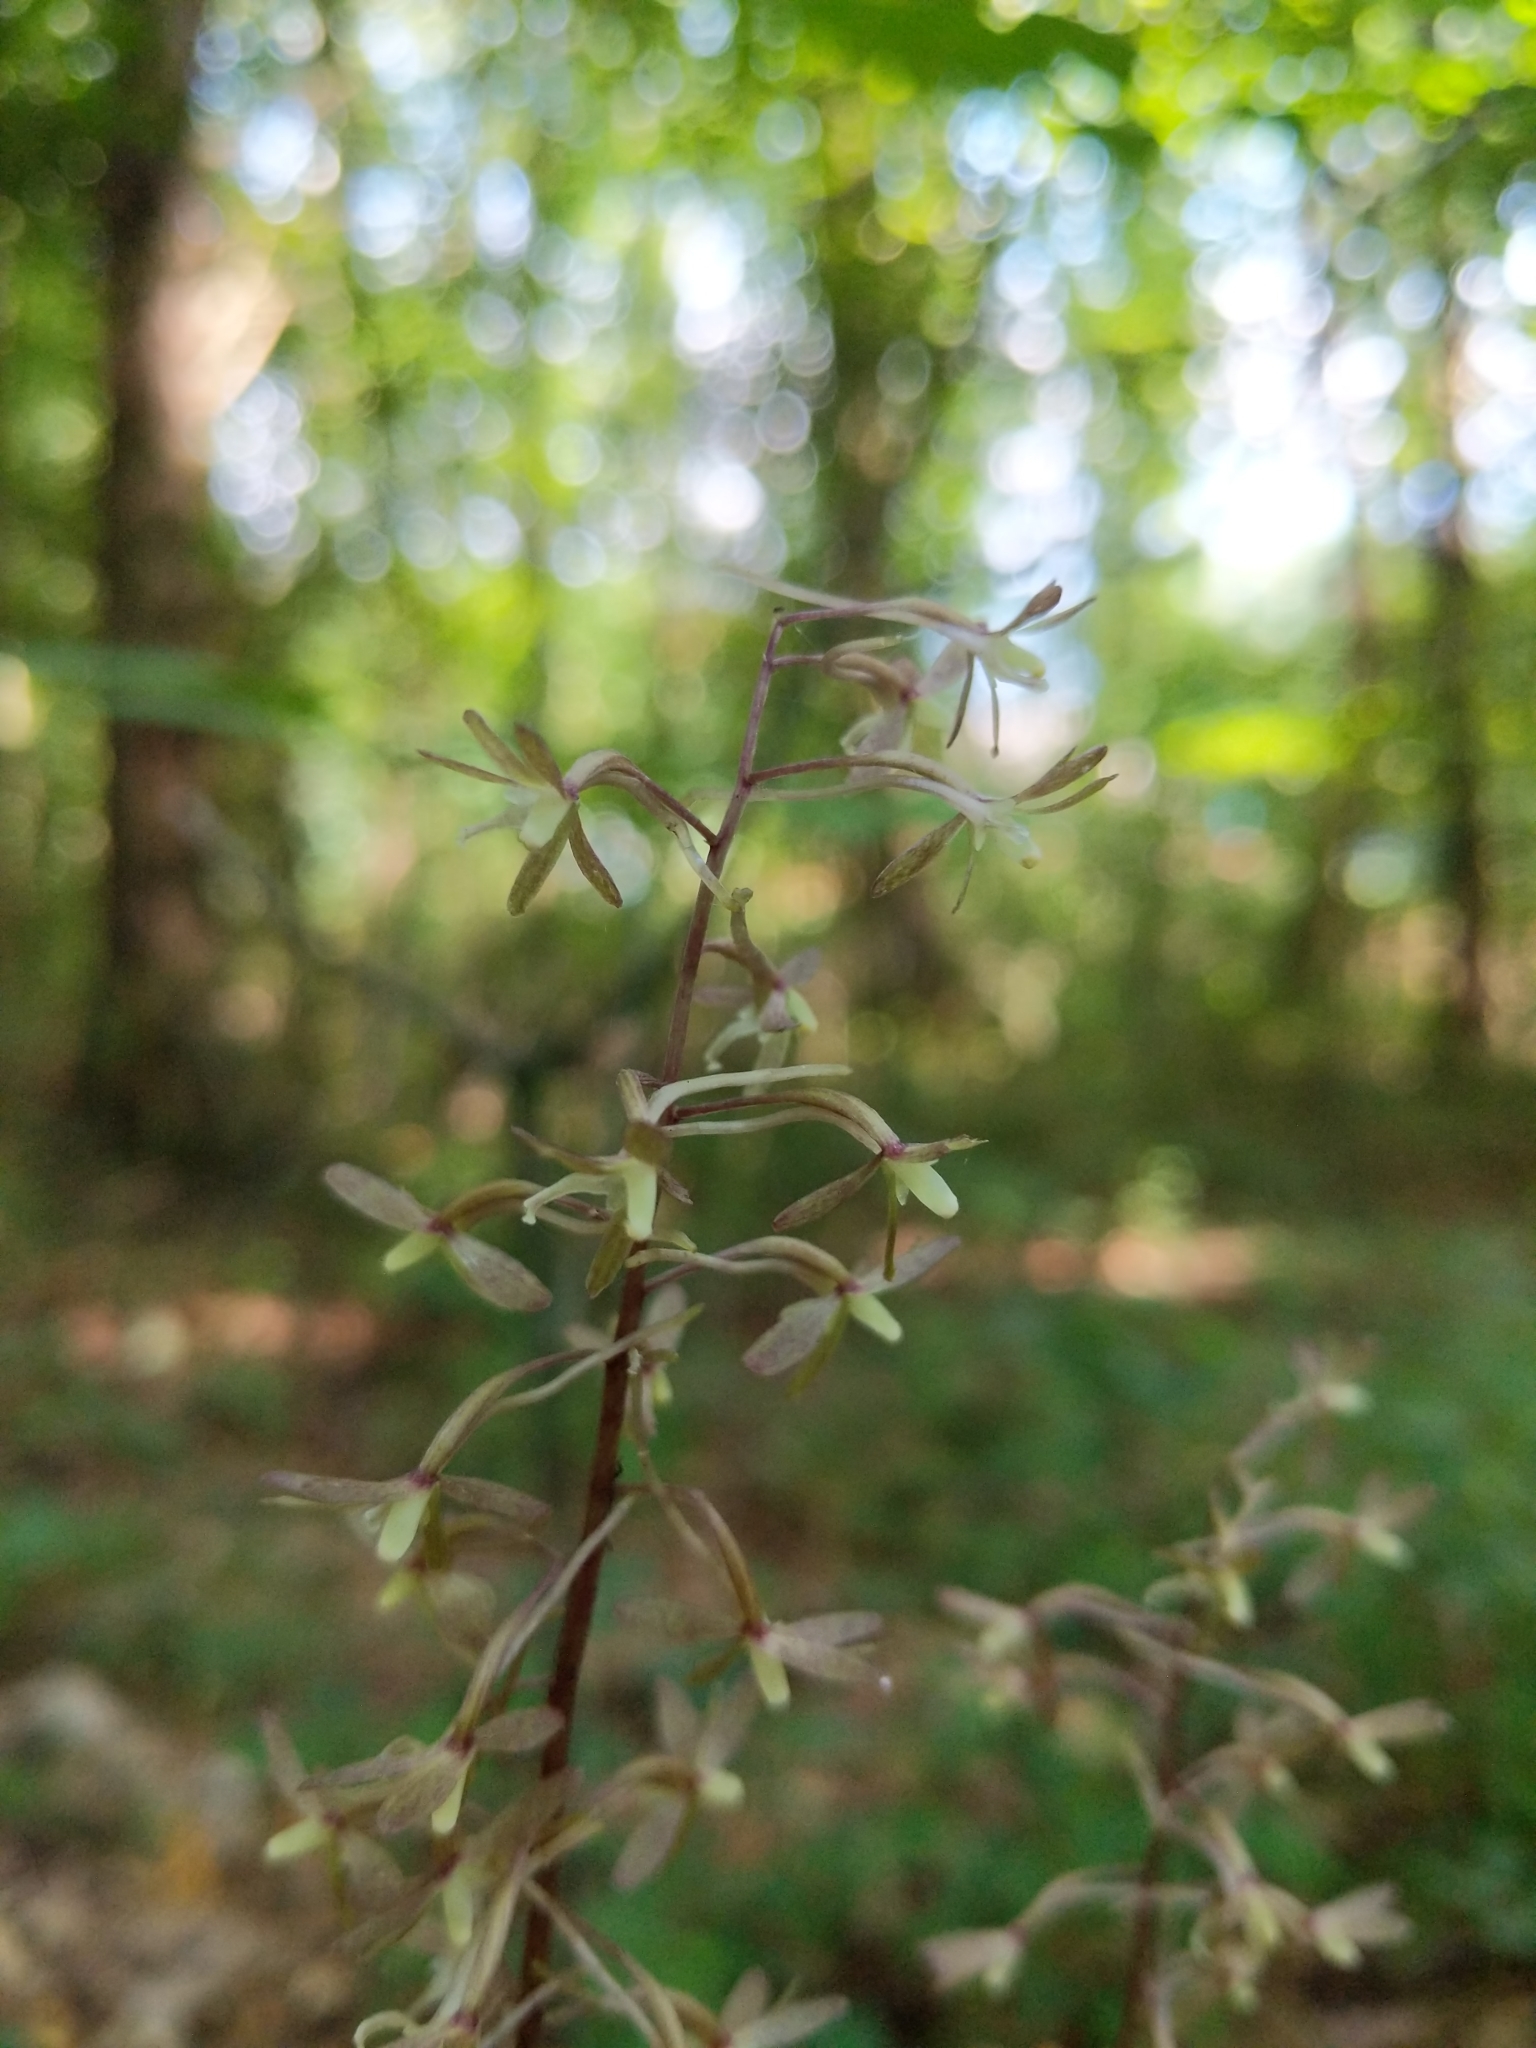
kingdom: Plantae
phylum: Tracheophyta
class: Liliopsida
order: Asparagales
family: Orchidaceae
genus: Tipularia
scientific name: Tipularia discolor
